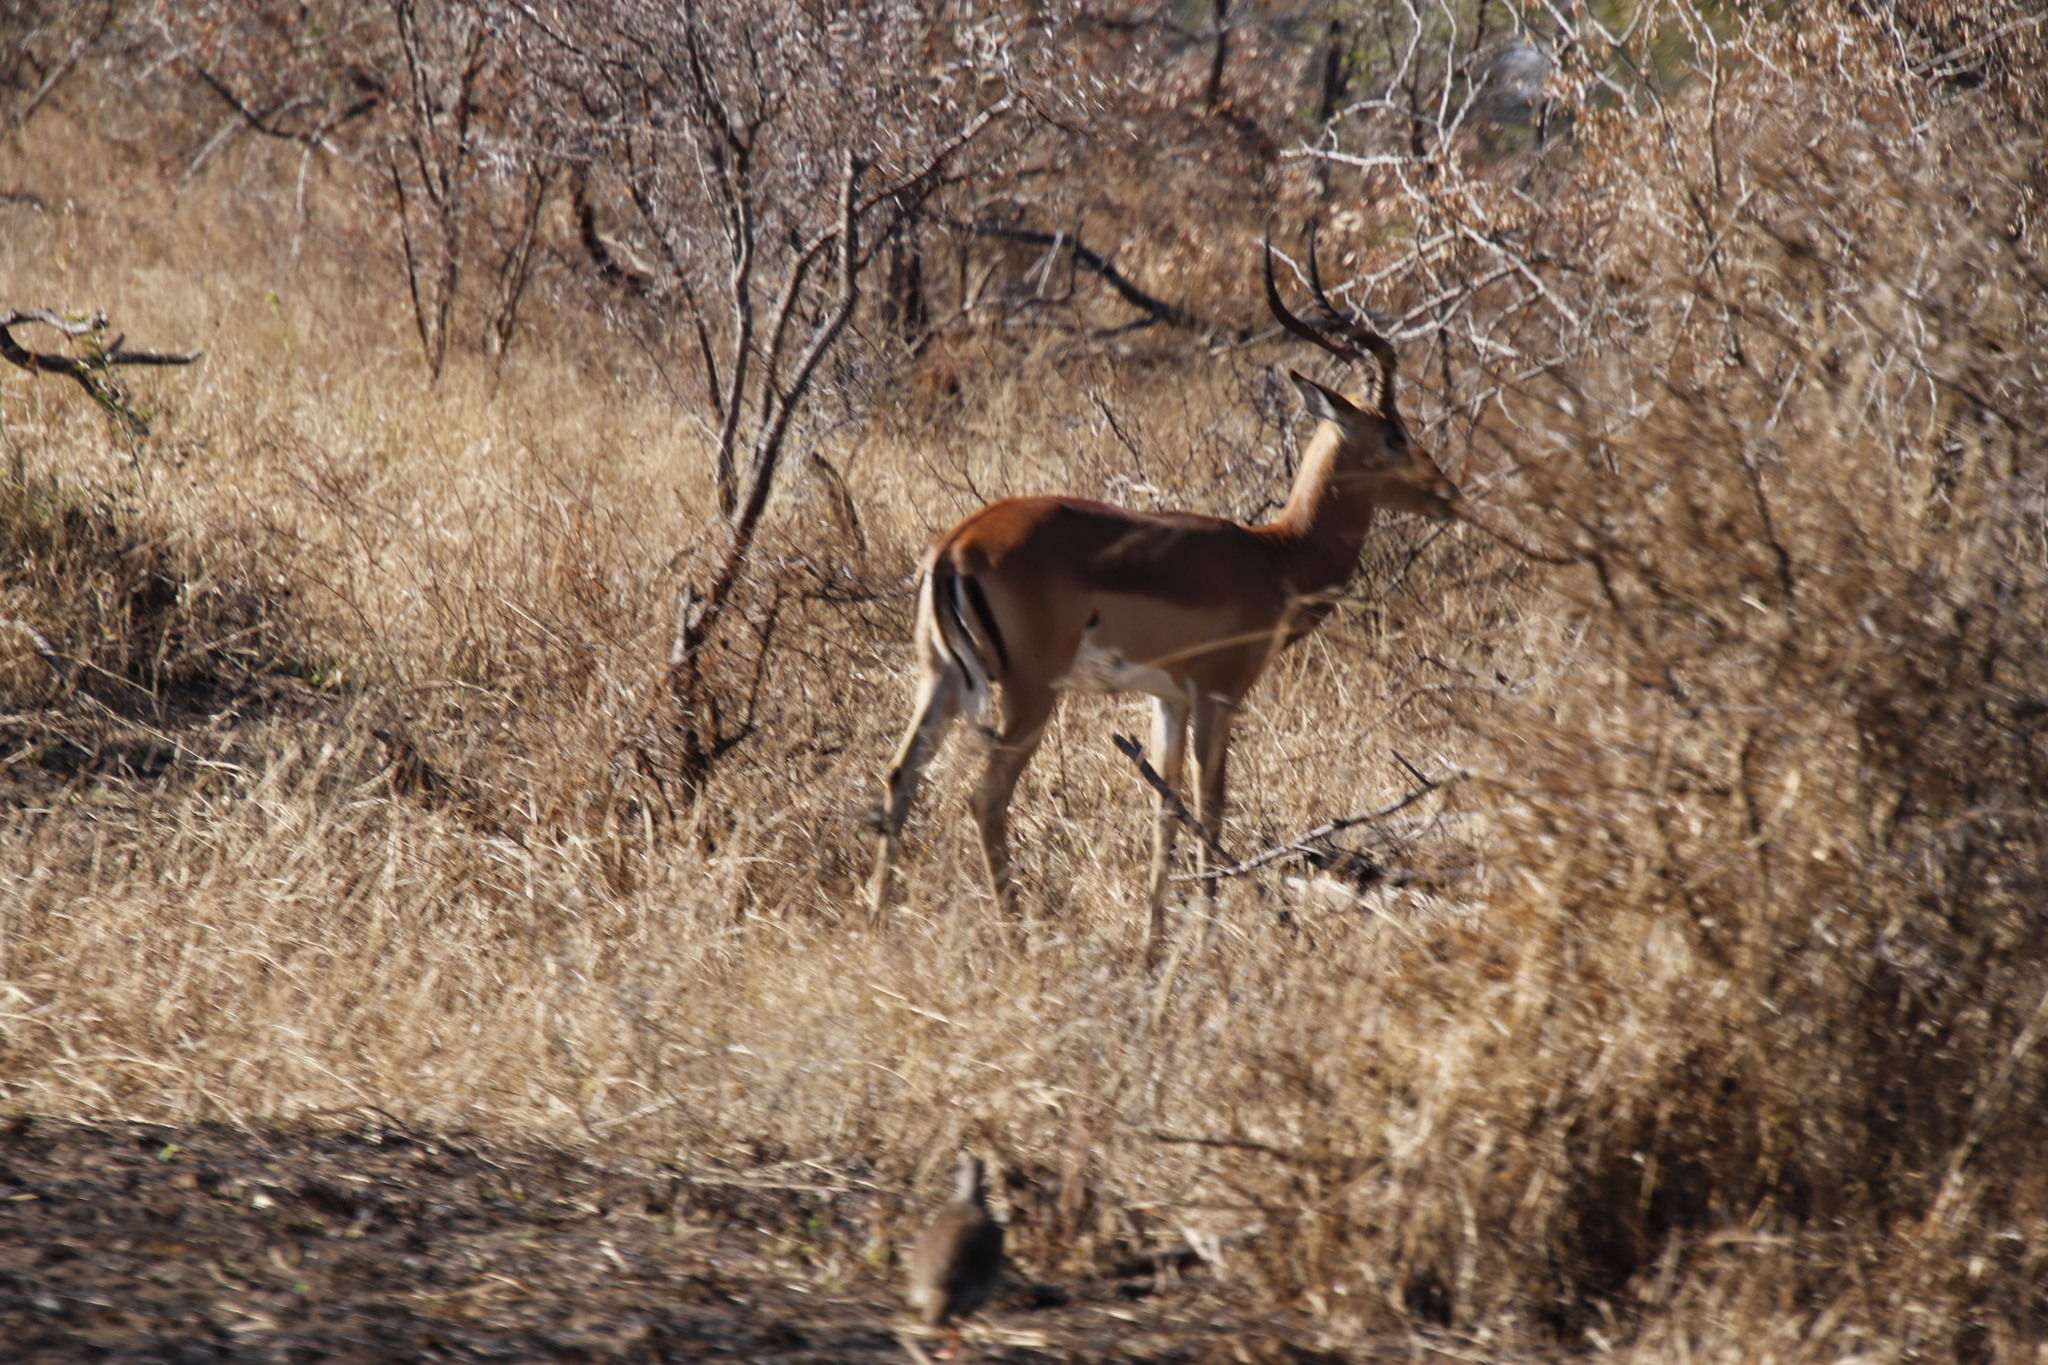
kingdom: Animalia
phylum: Chordata
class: Mammalia
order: Artiodactyla
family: Bovidae
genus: Aepyceros
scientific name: Aepyceros melampus
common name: Impala
